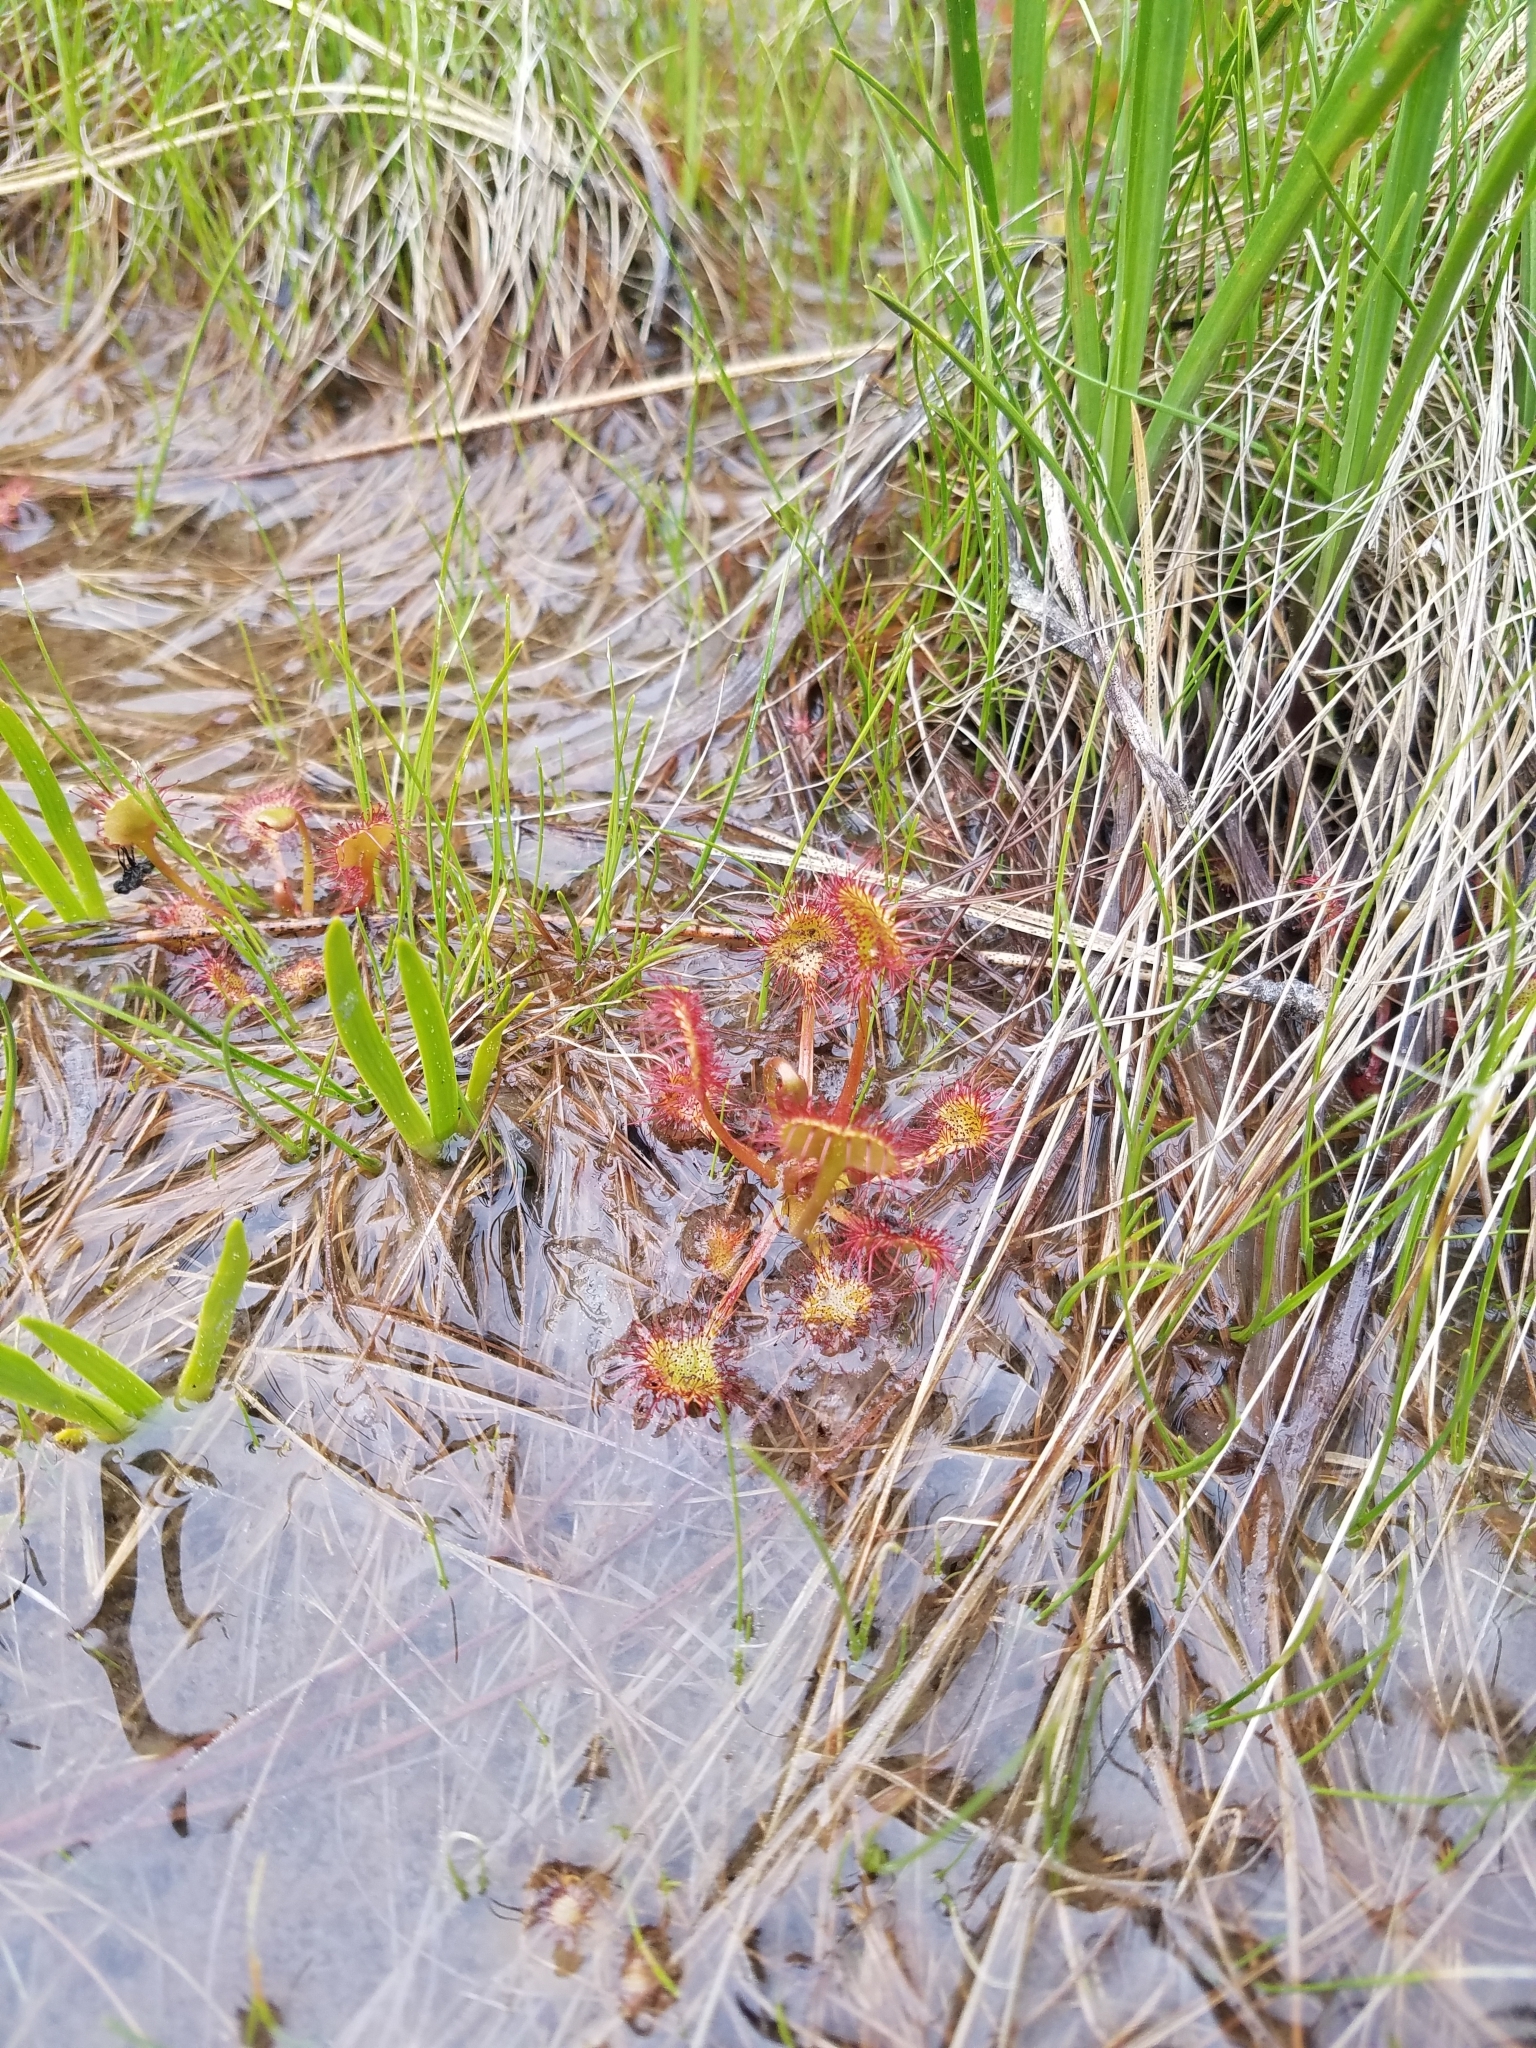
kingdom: Plantae
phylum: Tracheophyta
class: Magnoliopsida
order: Caryophyllales
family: Droseraceae
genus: Drosera
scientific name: Drosera rotundifolia
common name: Round-leaved sundew
